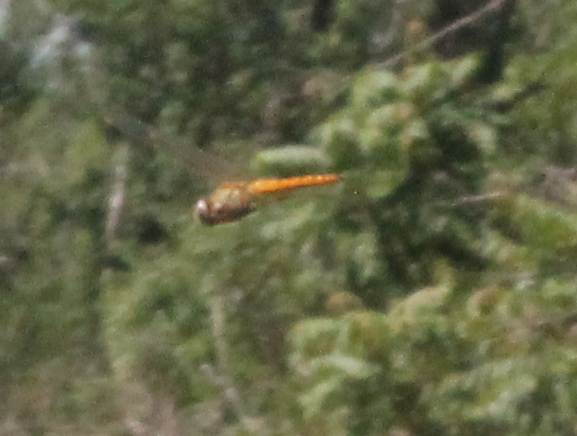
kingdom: Animalia
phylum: Arthropoda
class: Insecta
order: Odonata
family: Libellulidae
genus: Pantala
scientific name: Pantala flavescens
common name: Wandering glider
